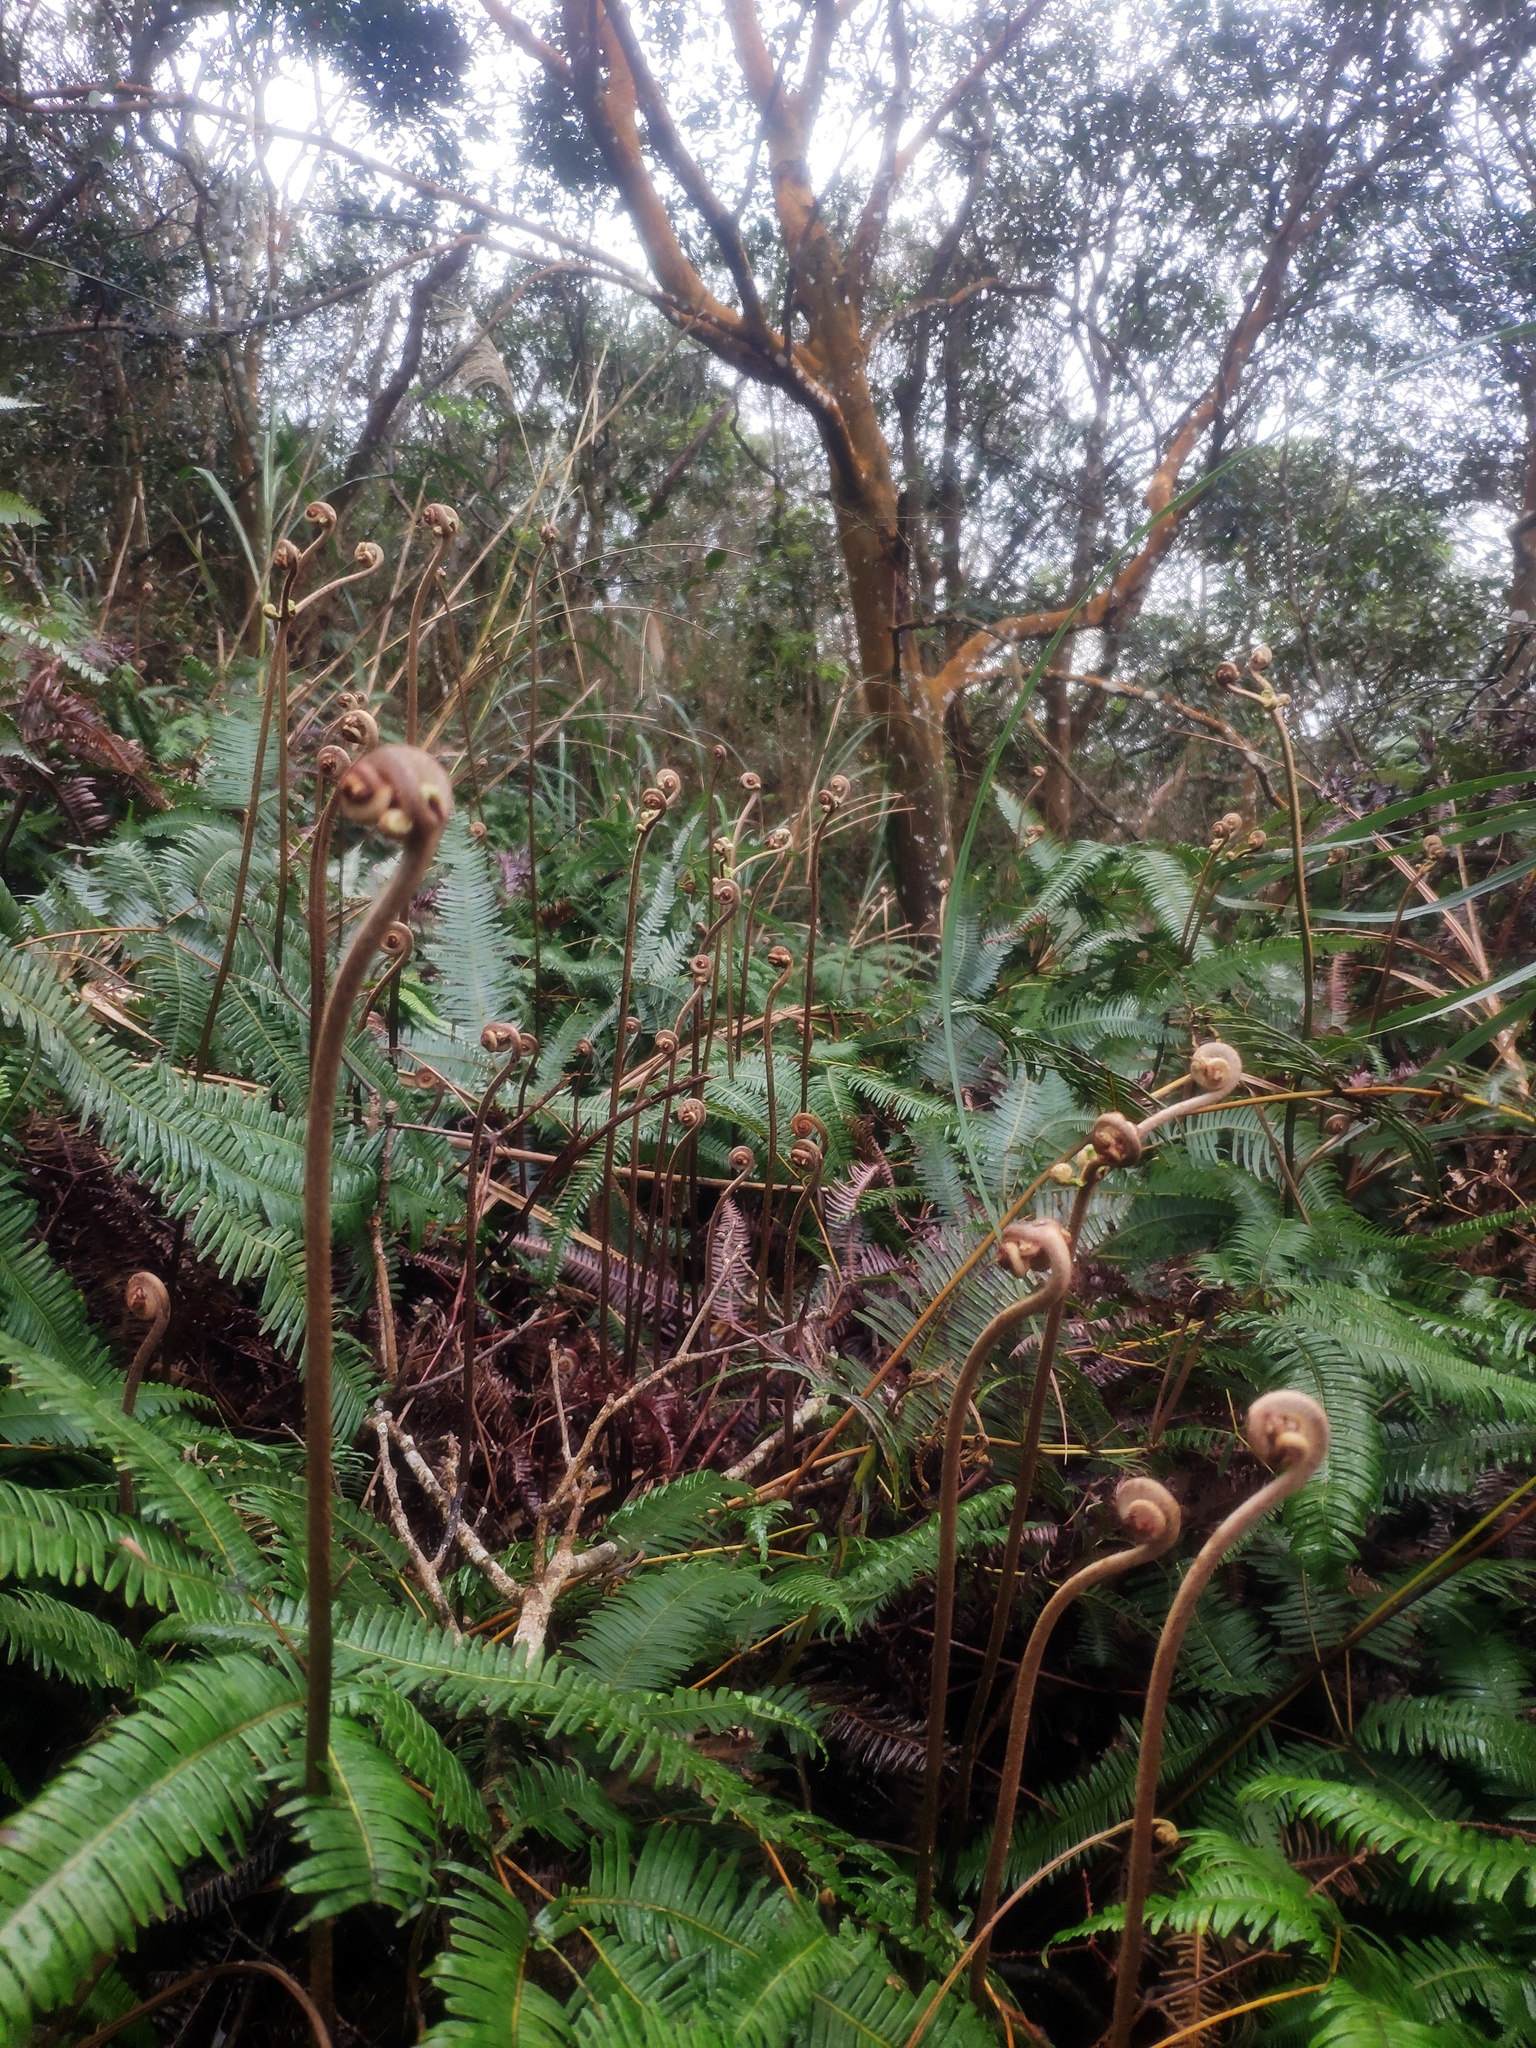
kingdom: Plantae
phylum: Tracheophyta
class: Polypodiopsida
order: Gleicheniales
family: Gleicheniaceae
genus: Dicranopteris
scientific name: Dicranopteris linearis
